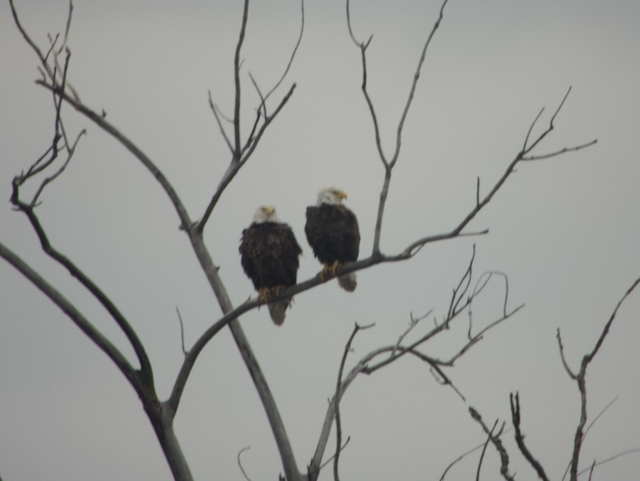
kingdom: Animalia
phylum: Chordata
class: Aves
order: Accipitriformes
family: Accipitridae
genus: Haliaeetus
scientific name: Haliaeetus leucocephalus
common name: Bald eagle
